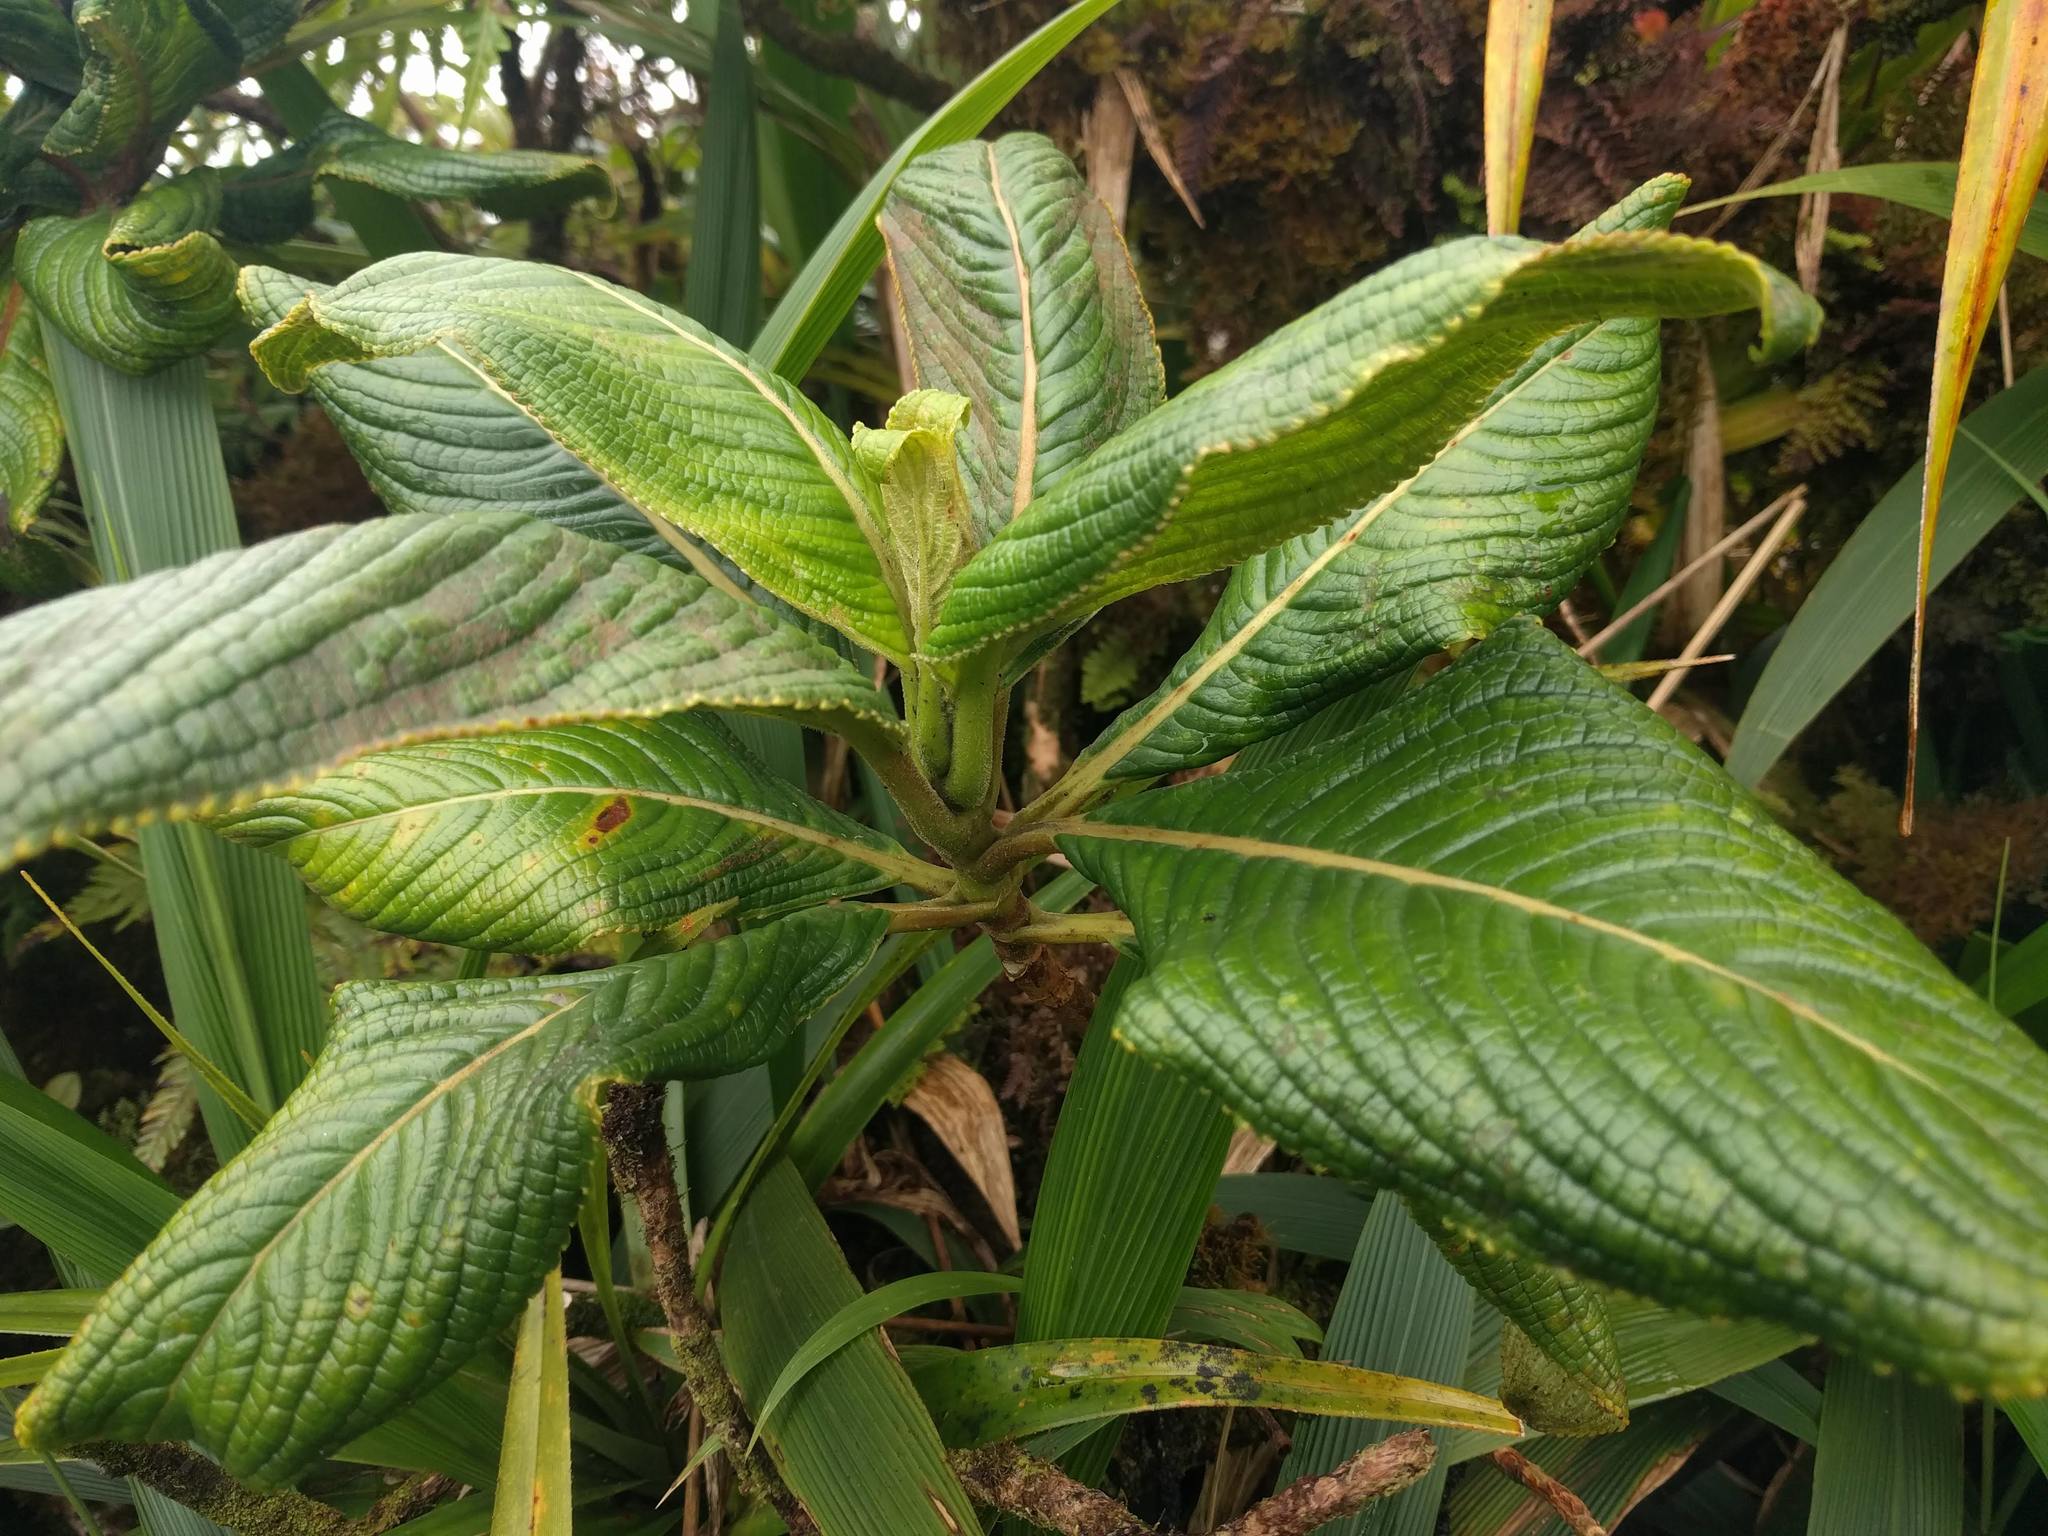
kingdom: Plantae
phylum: Tracheophyta
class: Magnoliopsida
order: Cornales
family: Hydrangeaceae
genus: Hydrangea
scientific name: Hydrangea arguta
